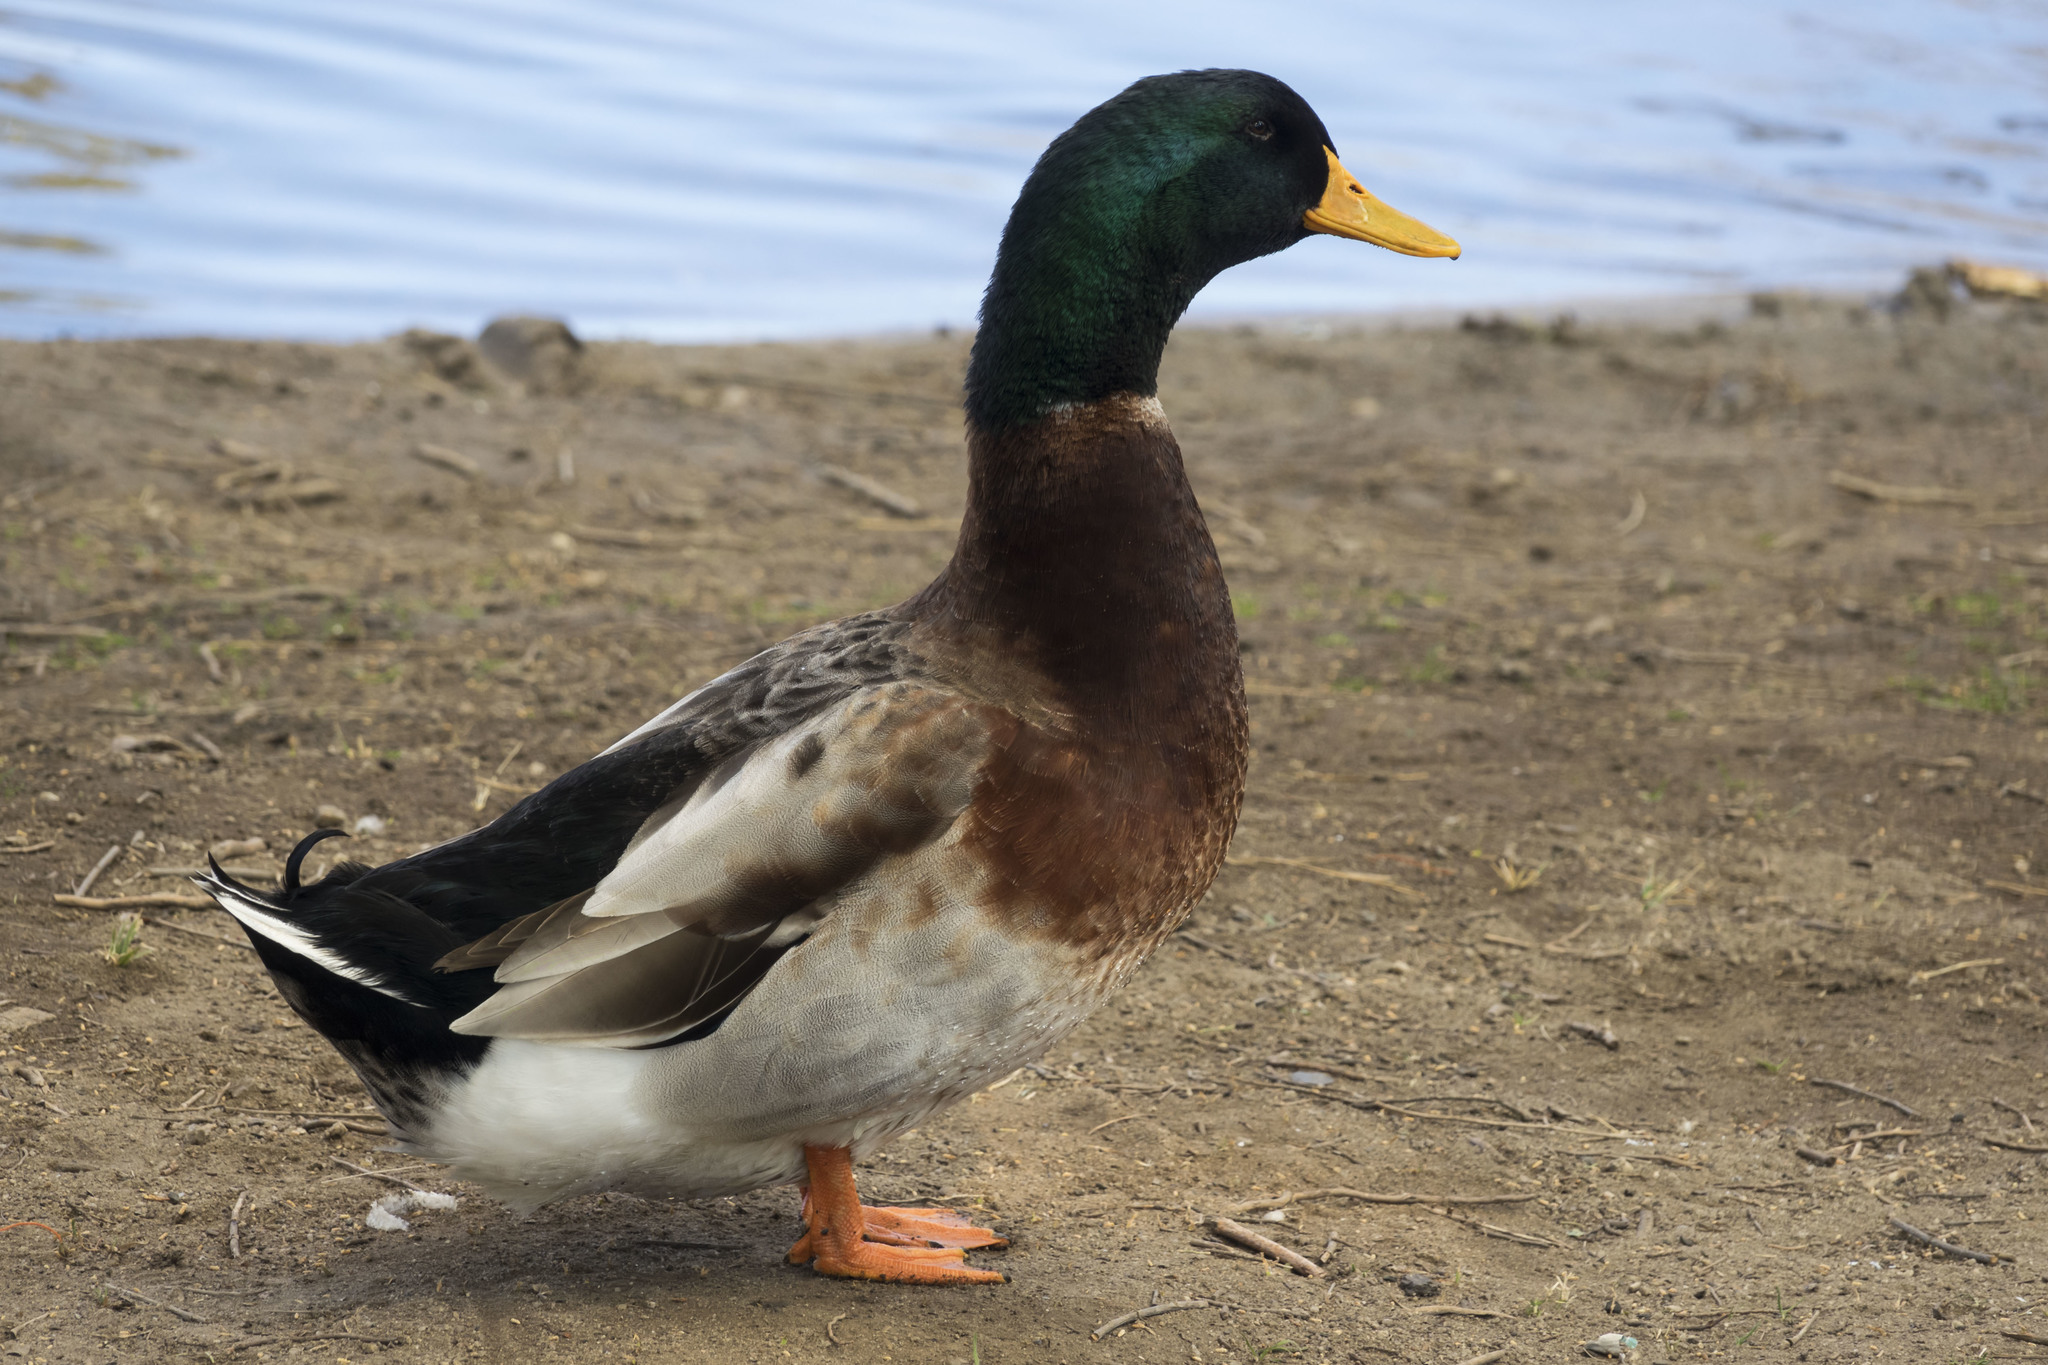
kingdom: Animalia
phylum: Chordata
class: Aves
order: Anseriformes
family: Anatidae
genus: Anas
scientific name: Anas platyrhynchos
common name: Mallard
